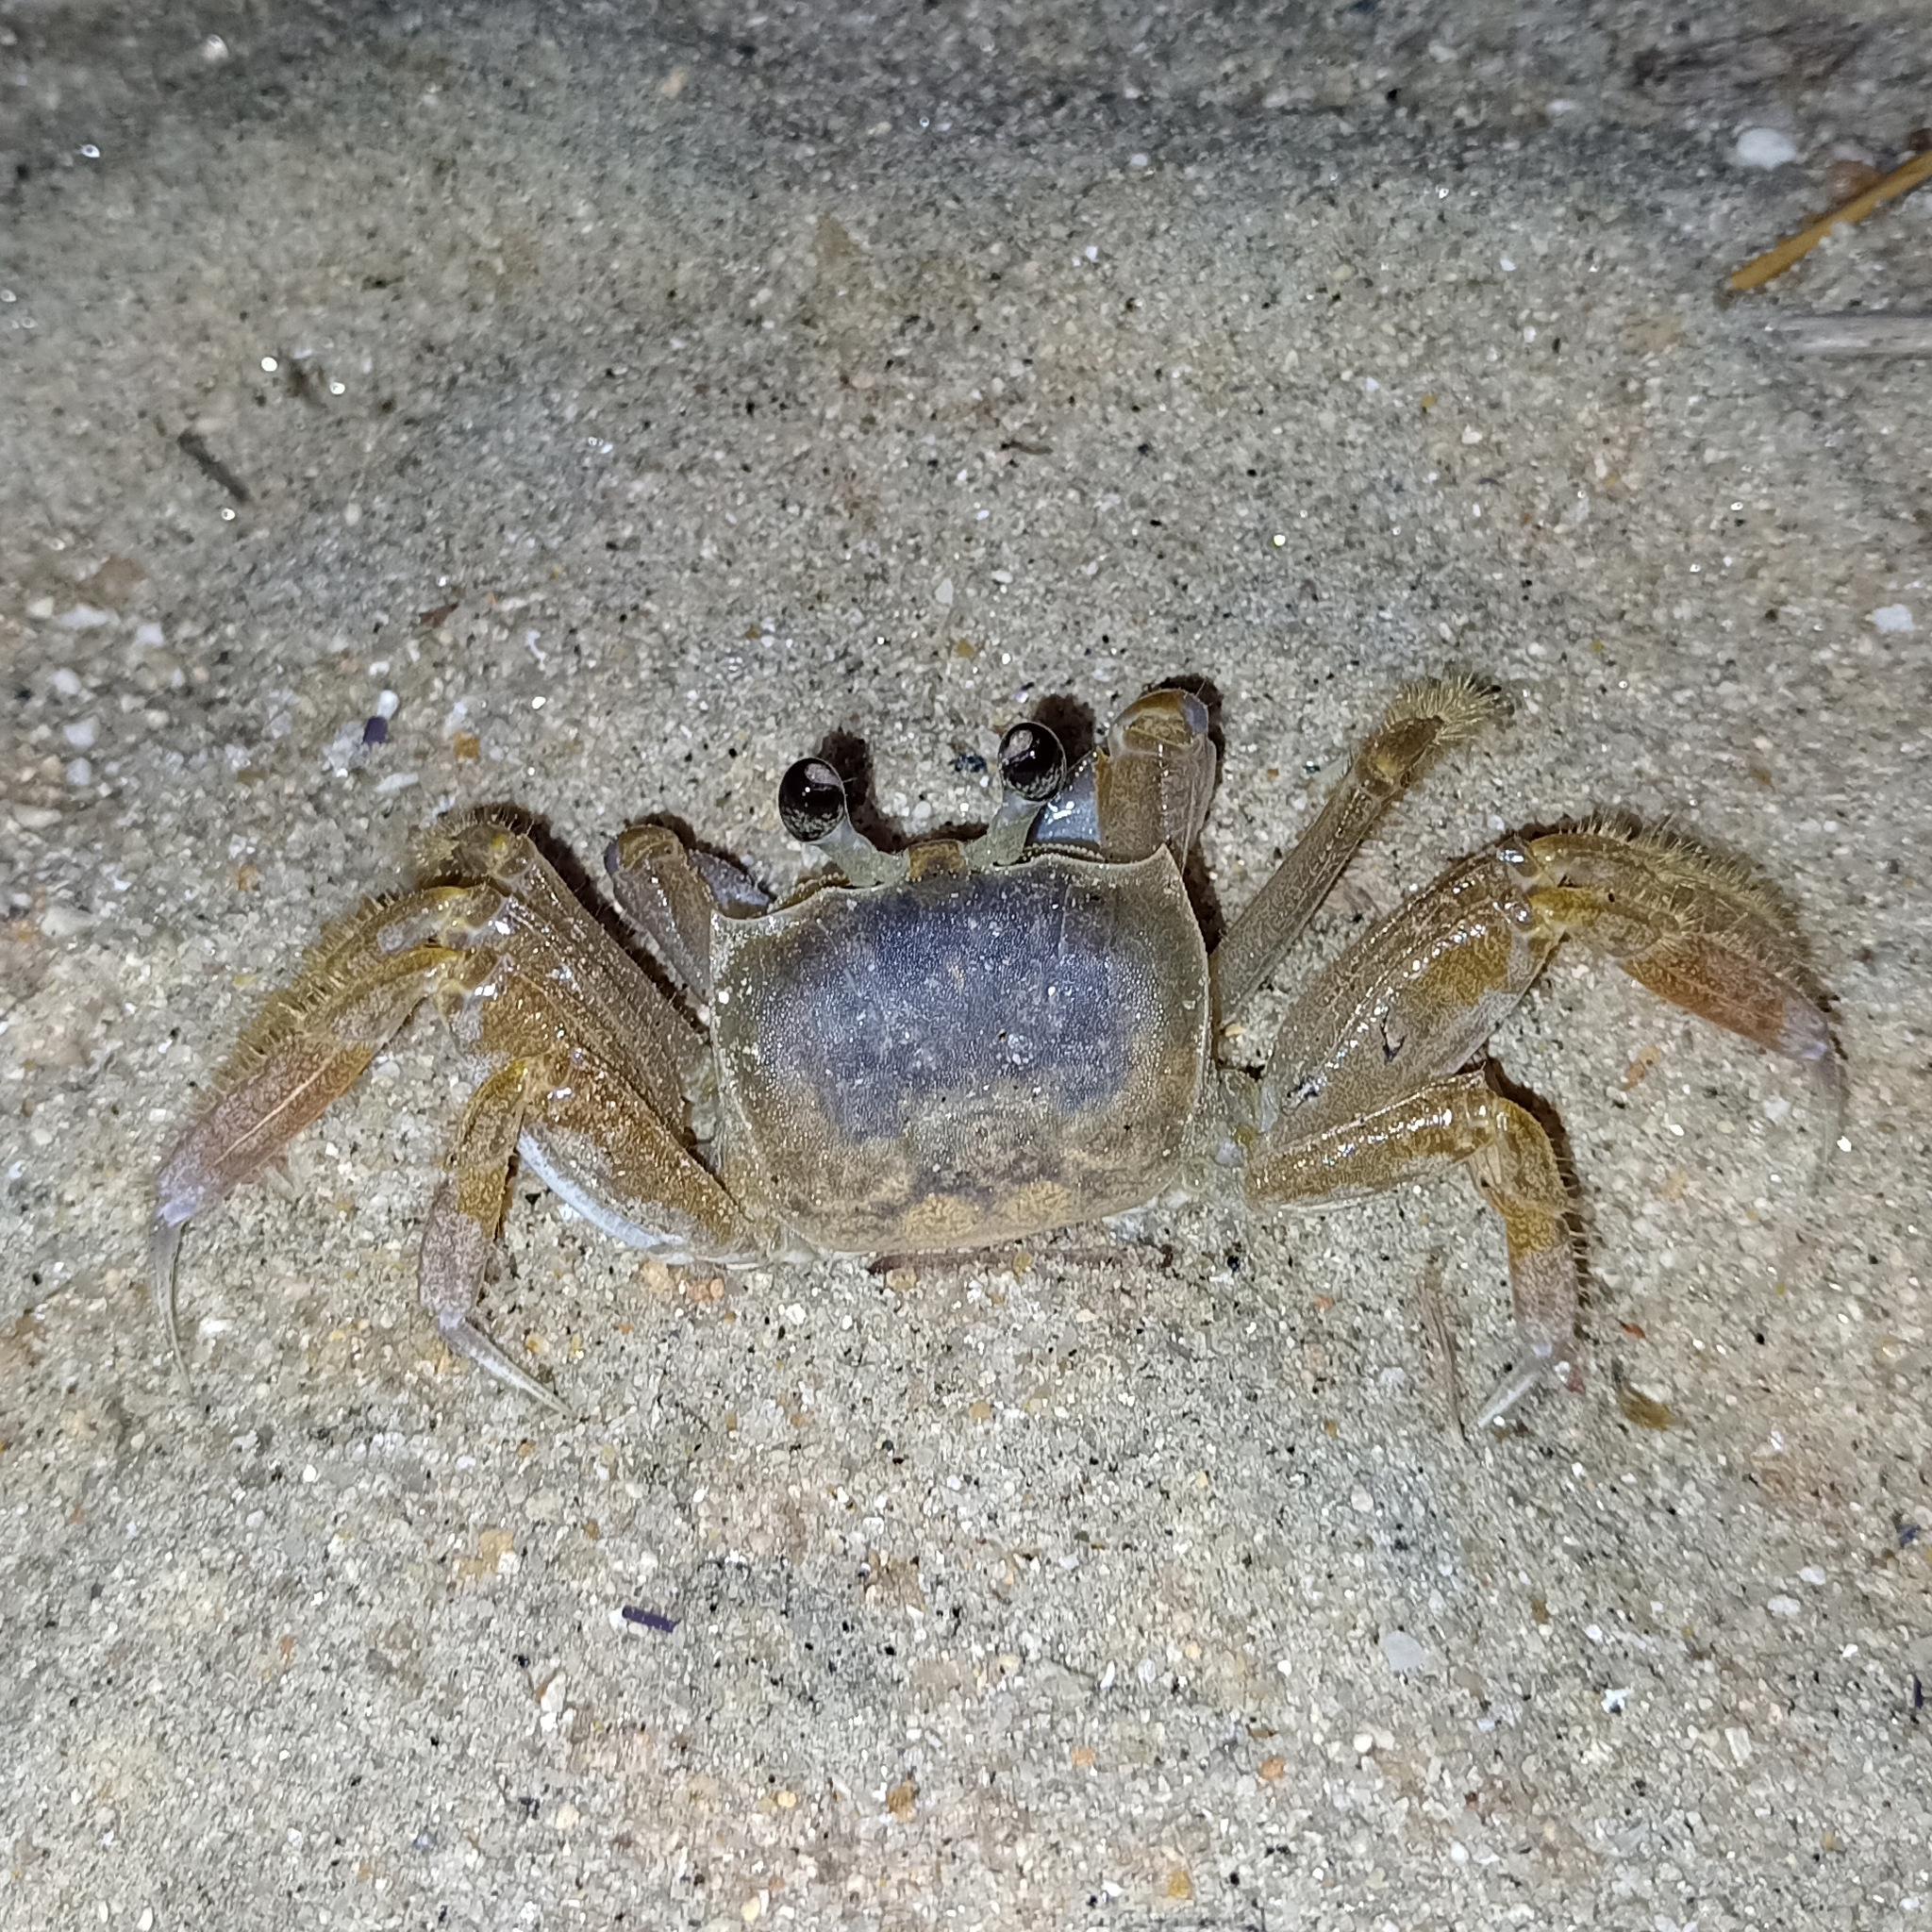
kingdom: Animalia
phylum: Arthropoda
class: Malacostraca
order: Decapoda
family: Ocypodidae
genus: Ocypode
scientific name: Ocypode quadrata
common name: Ghost crab
